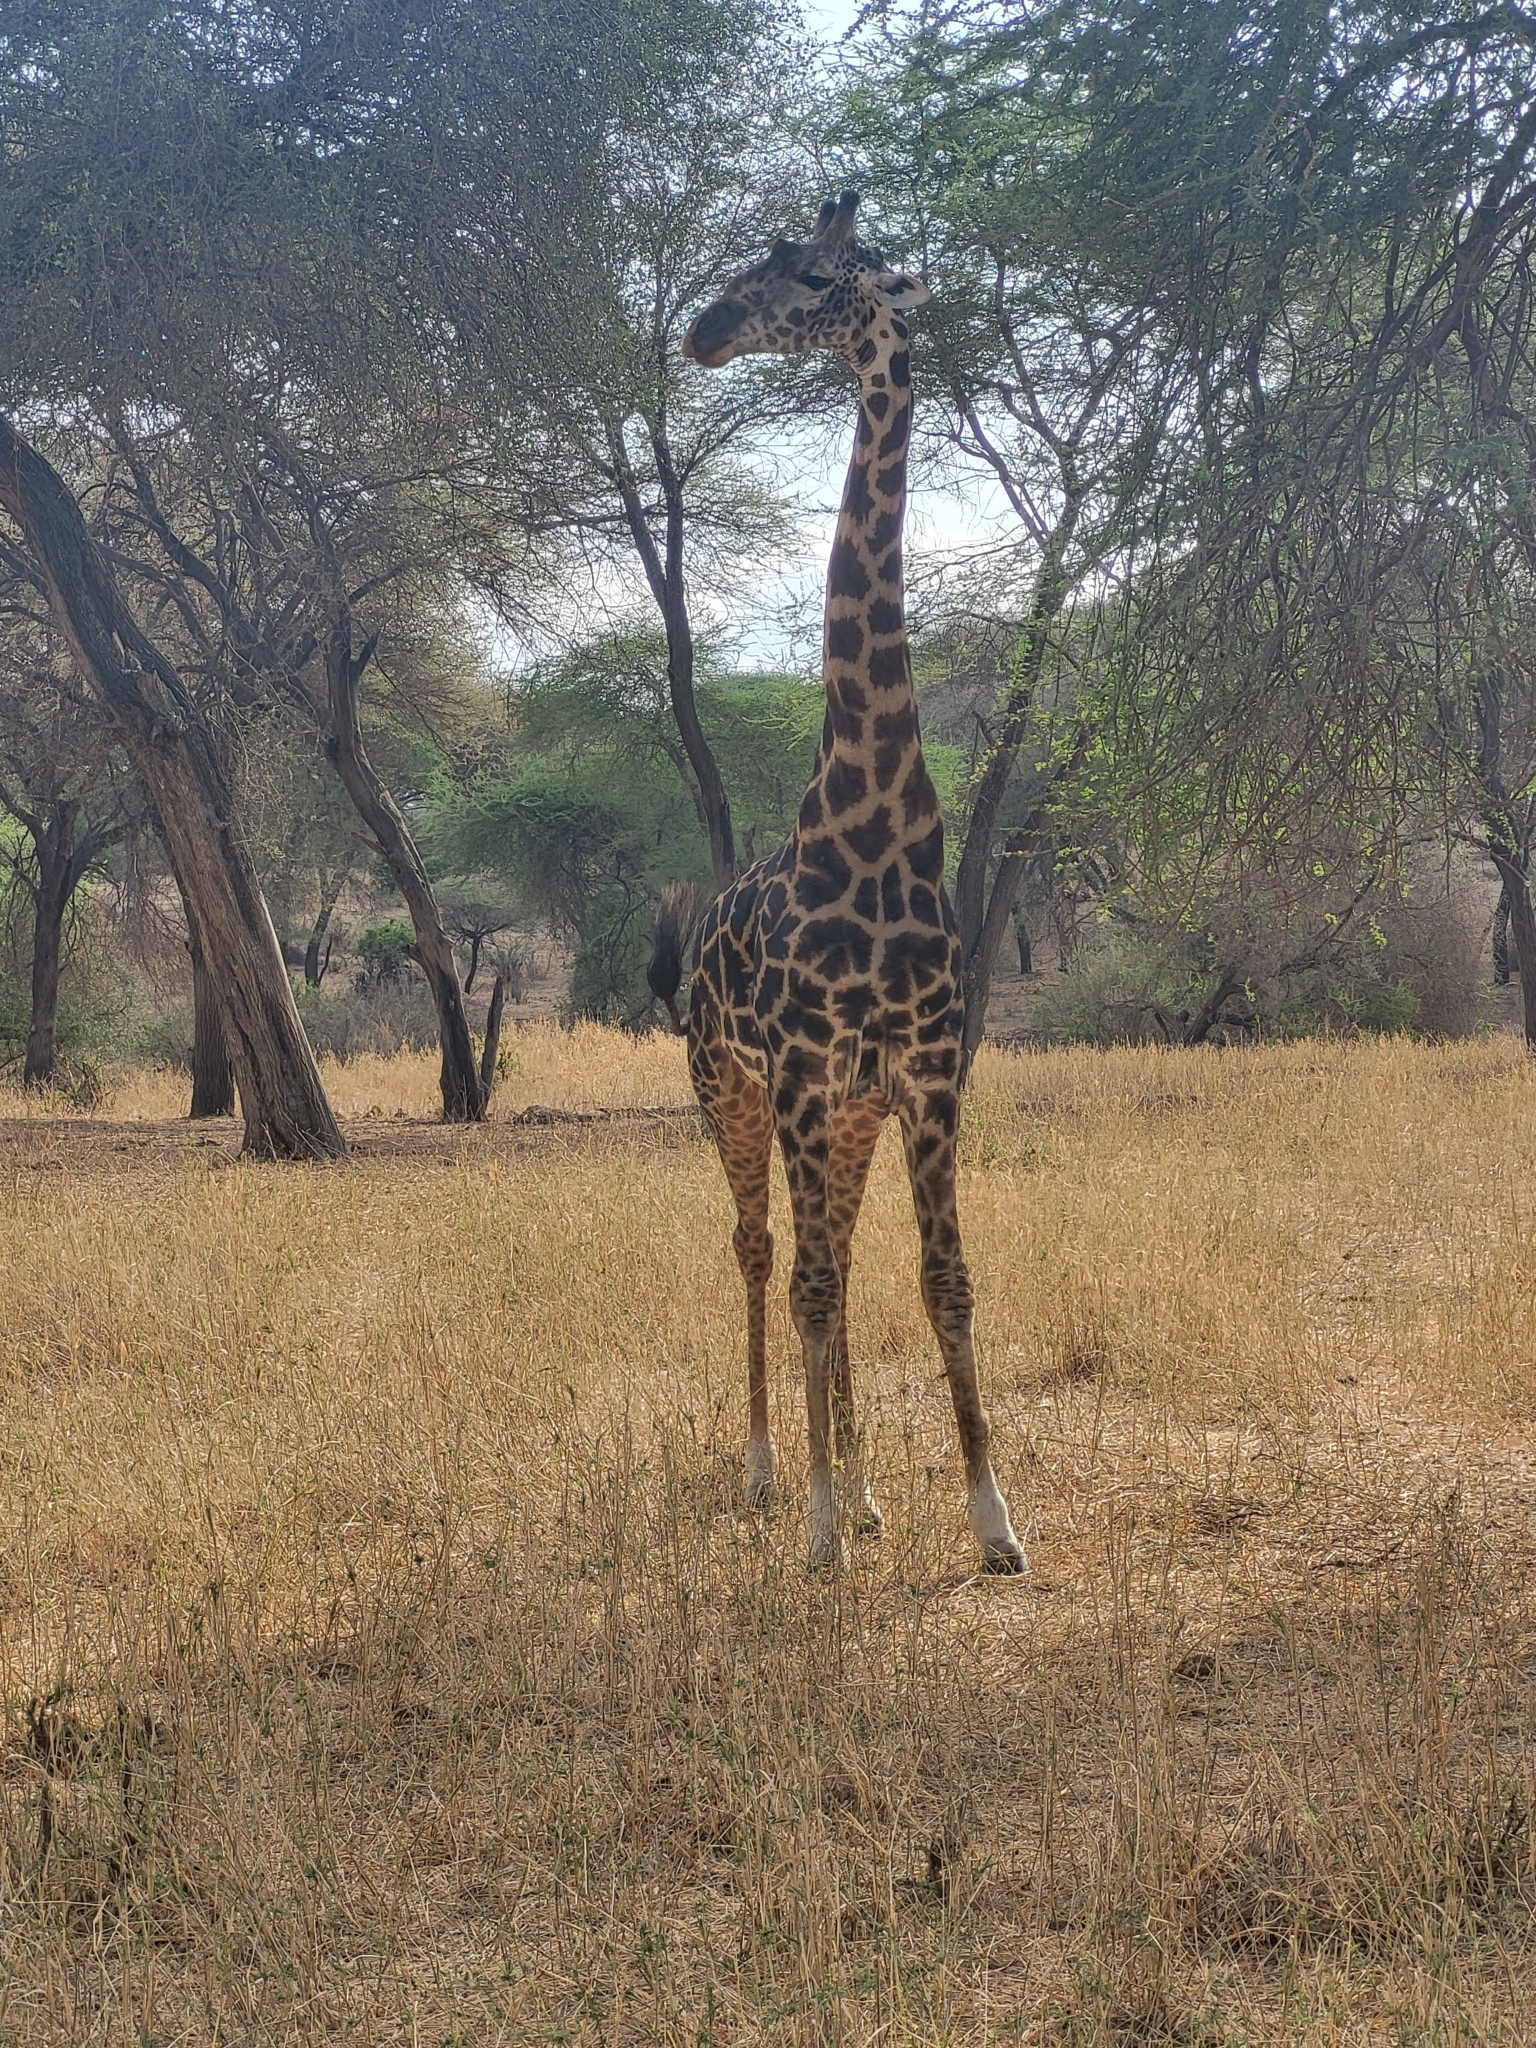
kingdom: Animalia
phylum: Chordata
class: Mammalia
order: Artiodactyla
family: Giraffidae
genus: Giraffa
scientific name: Giraffa tippelskirchi
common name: Masai giraffe
